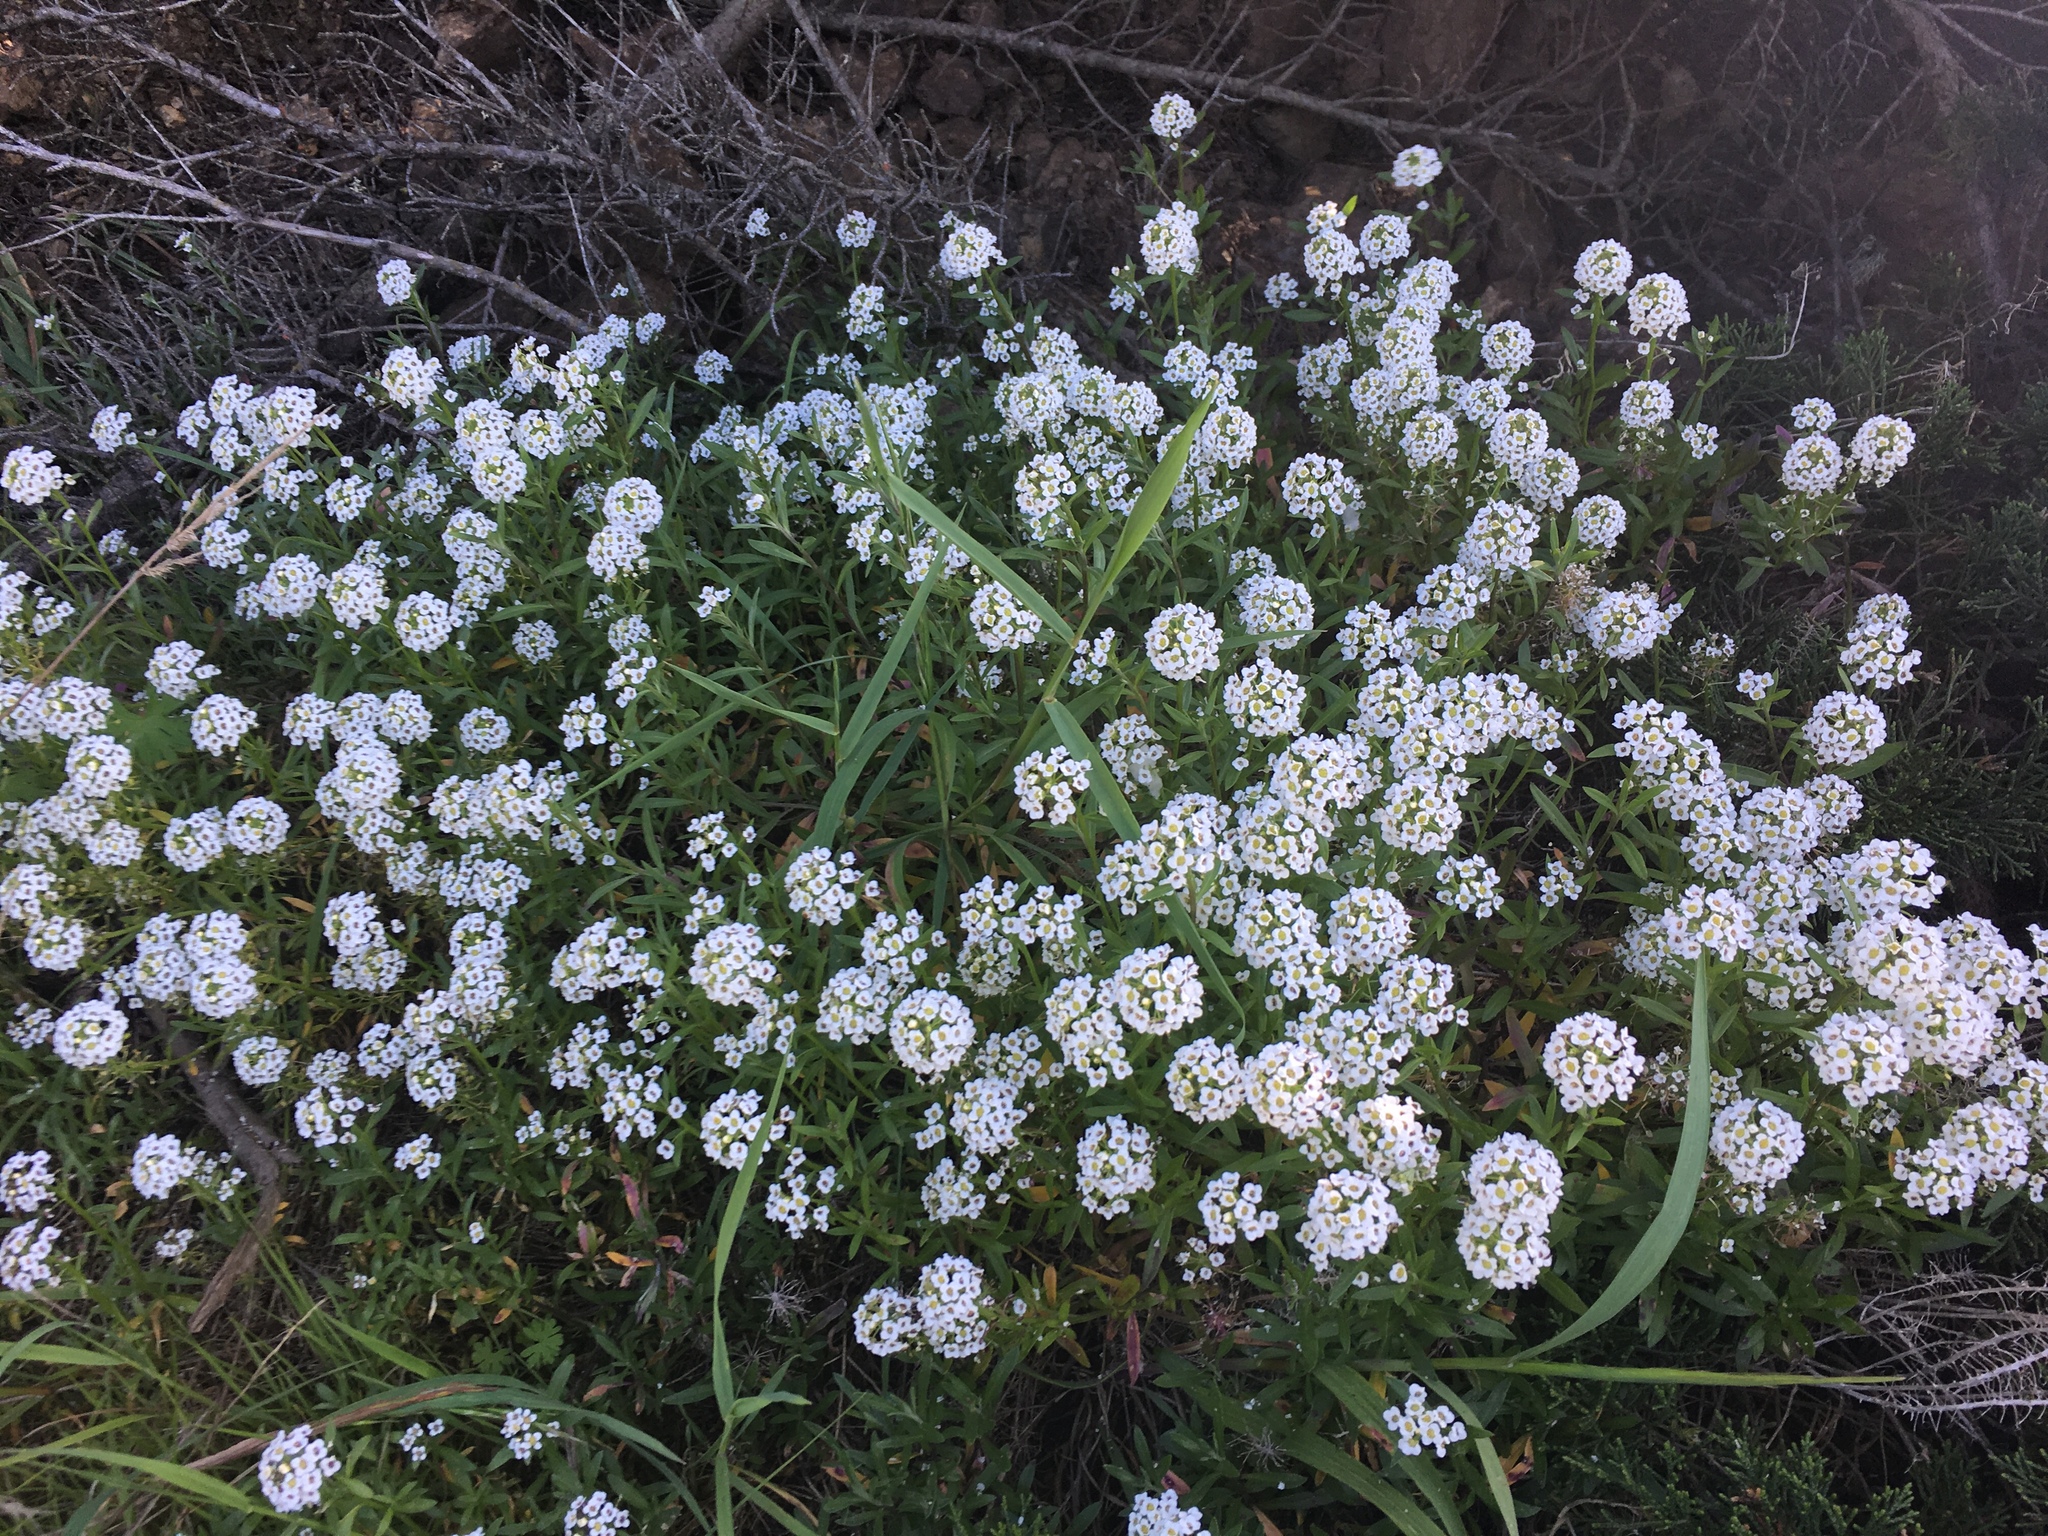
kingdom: Plantae
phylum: Tracheophyta
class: Magnoliopsida
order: Brassicales
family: Brassicaceae
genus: Lobularia
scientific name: Lobularia maritima
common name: Sweet alison
